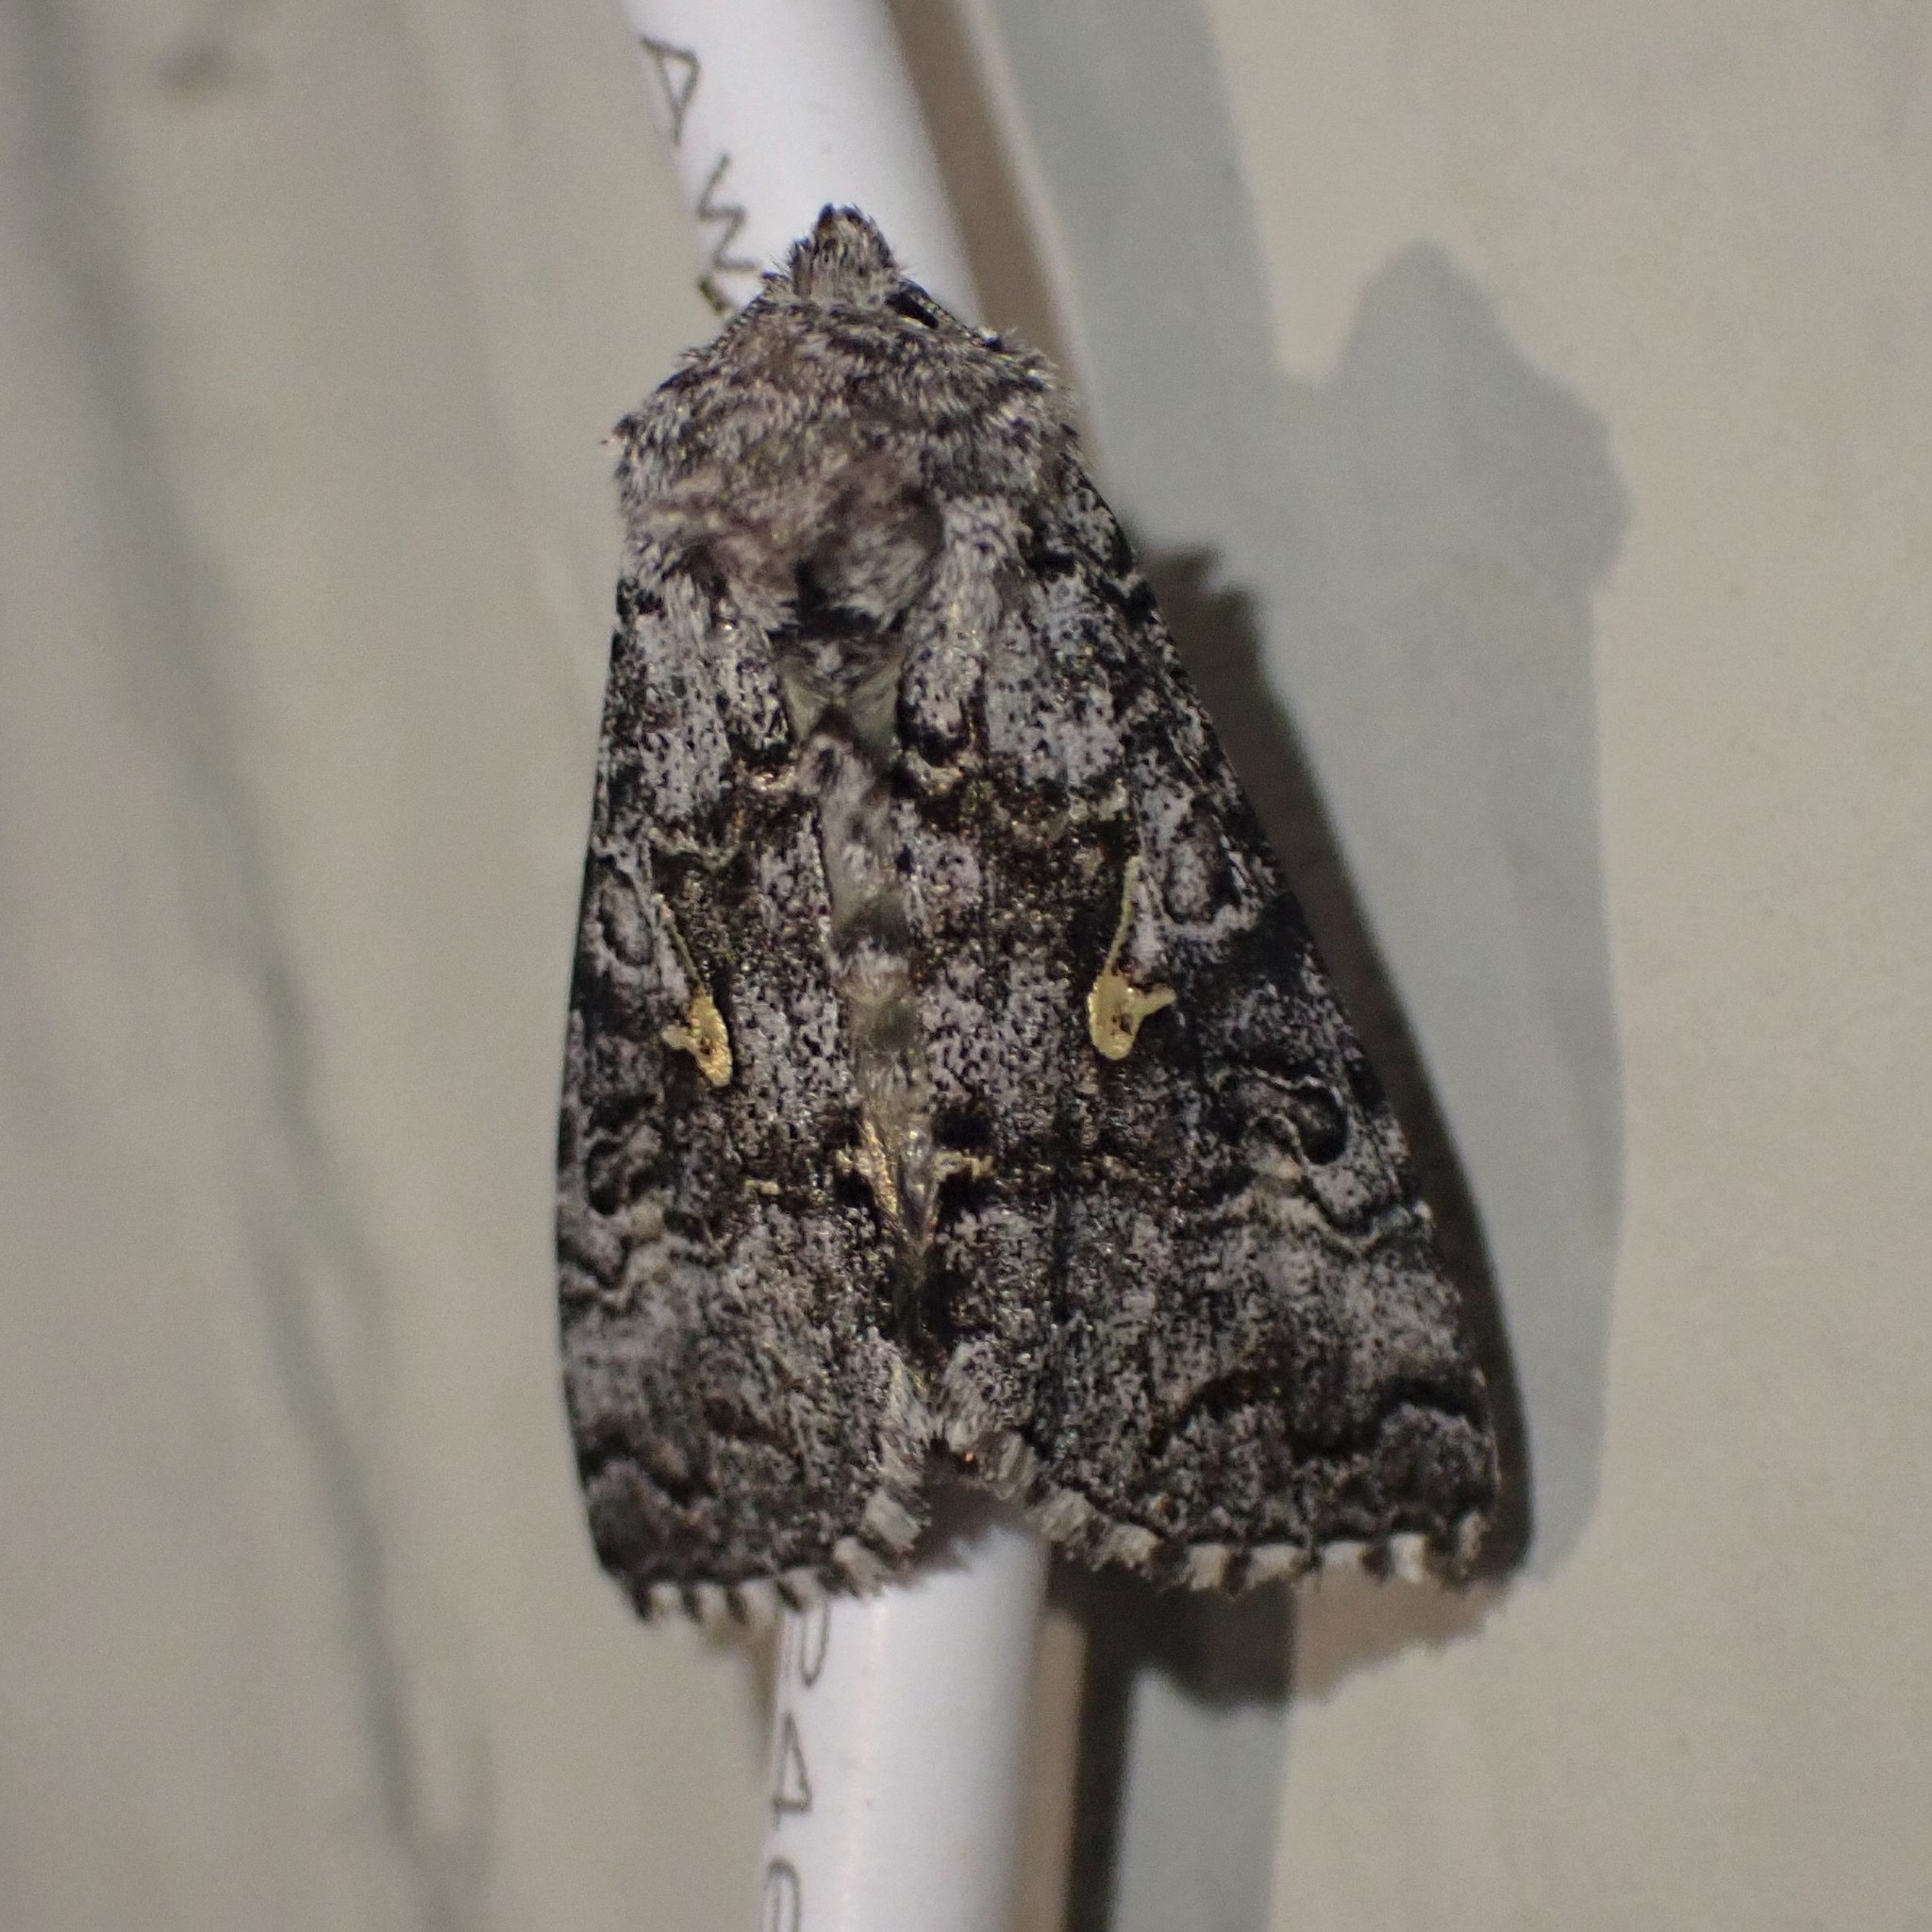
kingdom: Animalia
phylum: Arthropoda
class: Insecta
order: Lepidoptera
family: Noctuidae
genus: Syngrapha
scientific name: Syngrapha celsa
